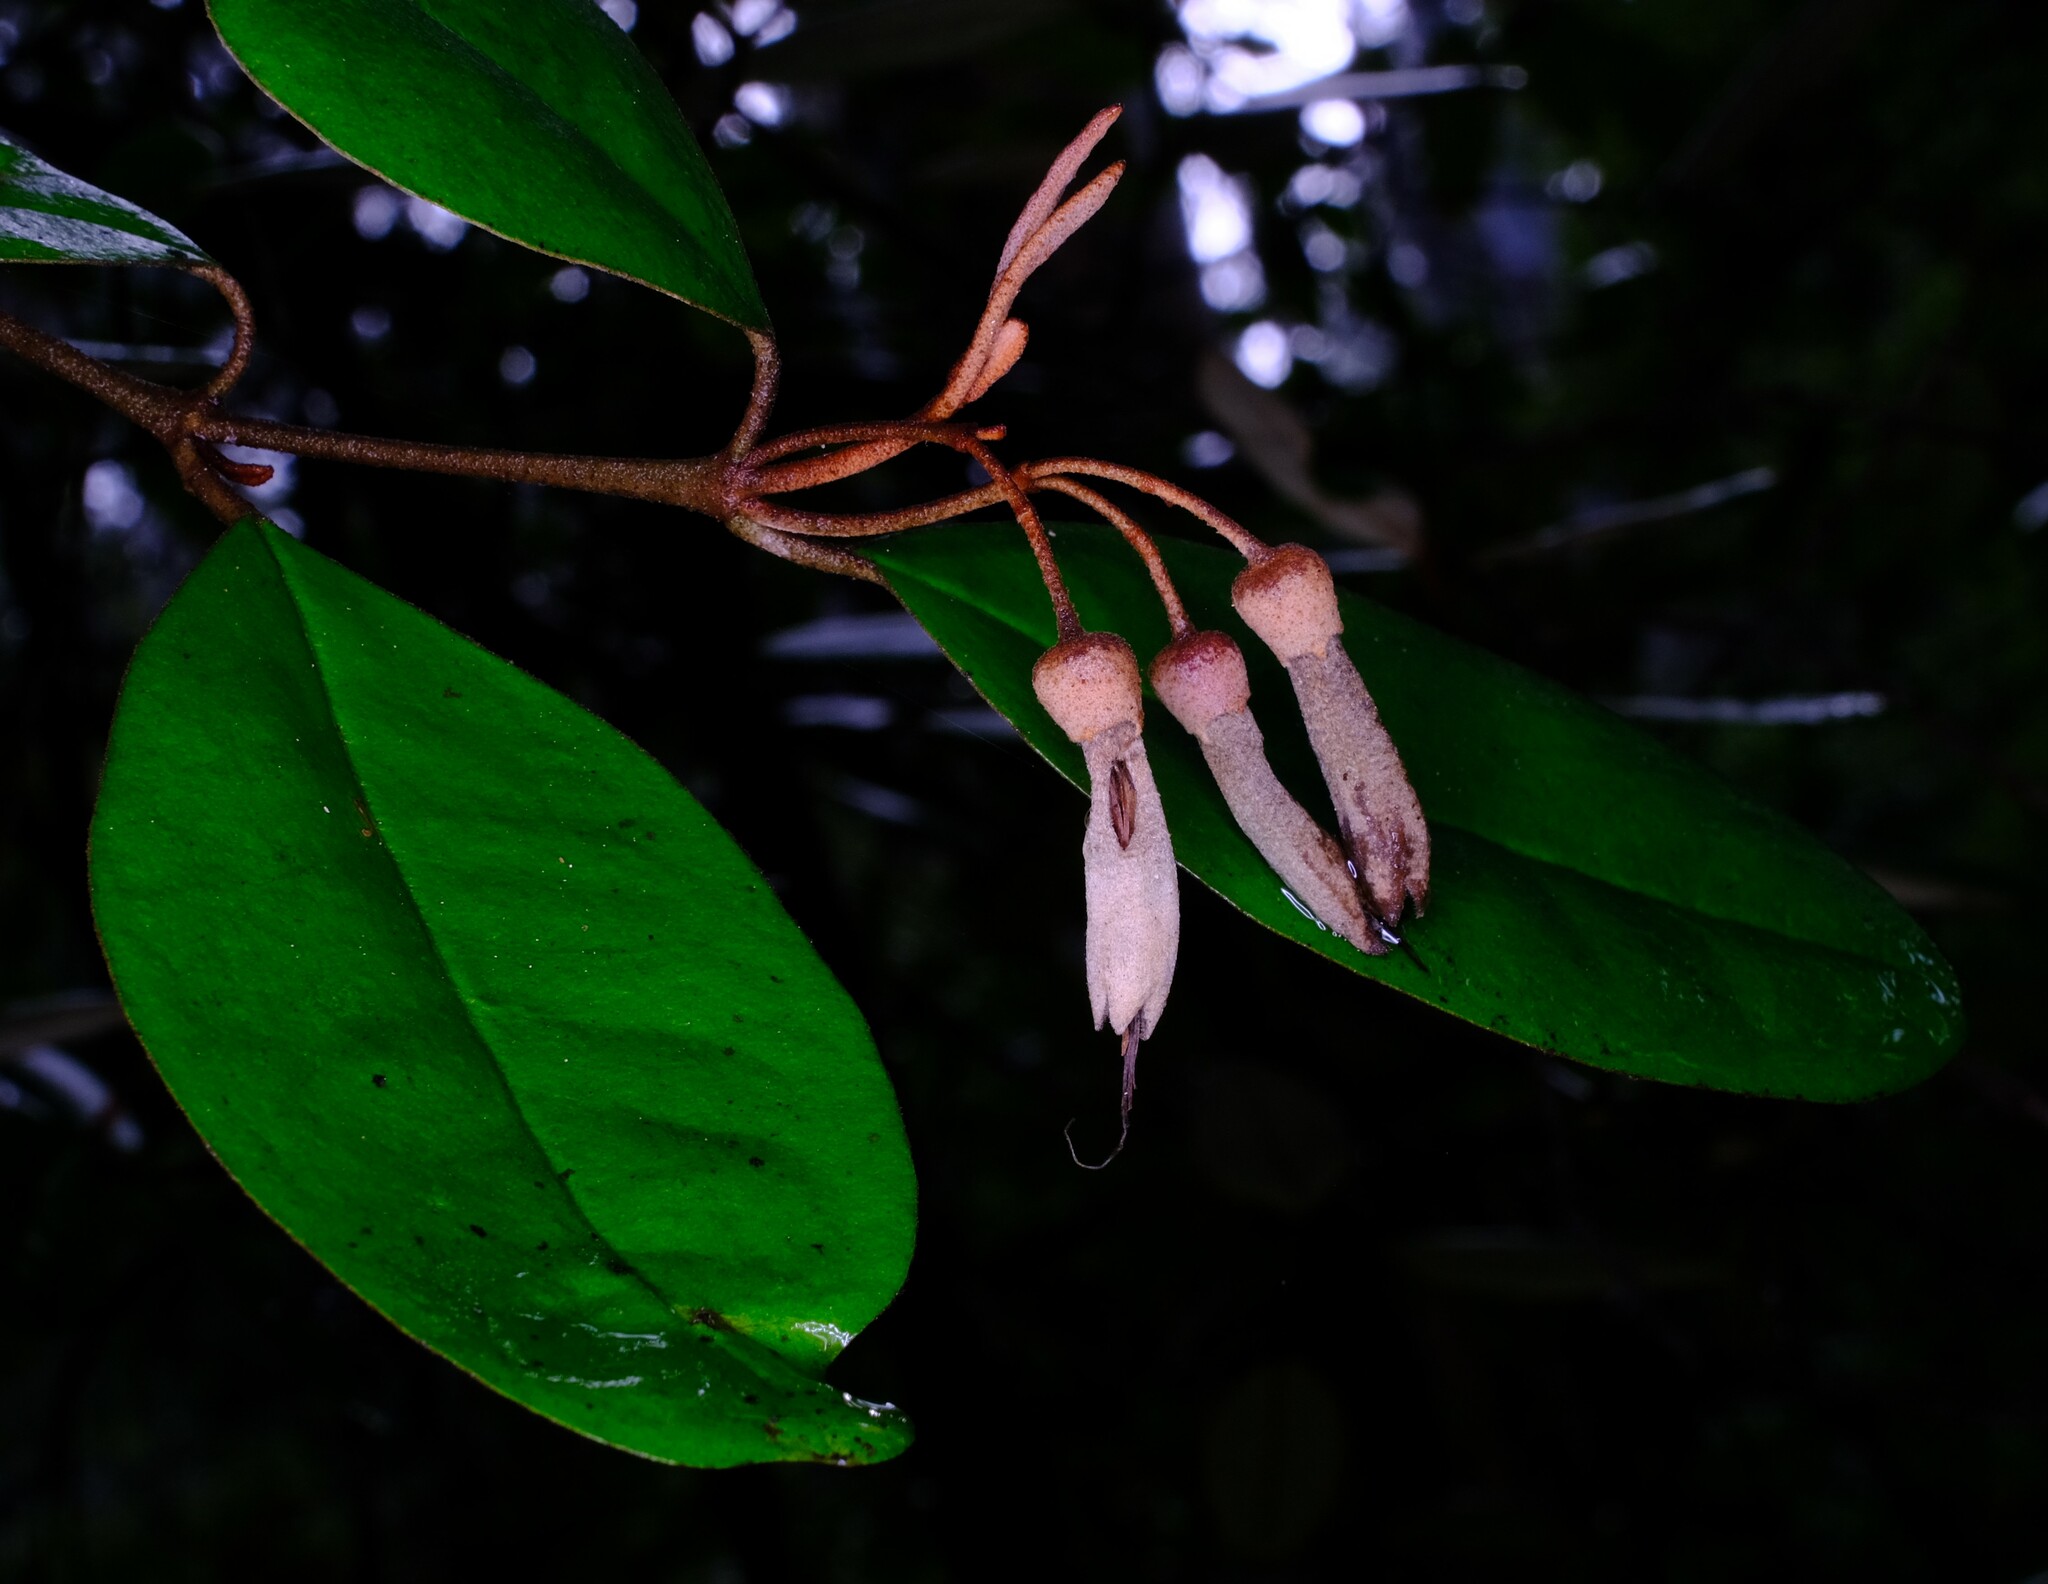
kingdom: Plantae
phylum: Tracheophyta
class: Magnoliopsida
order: Sapindales
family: Rutaceae
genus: Correa
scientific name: Correa lawrenceana
